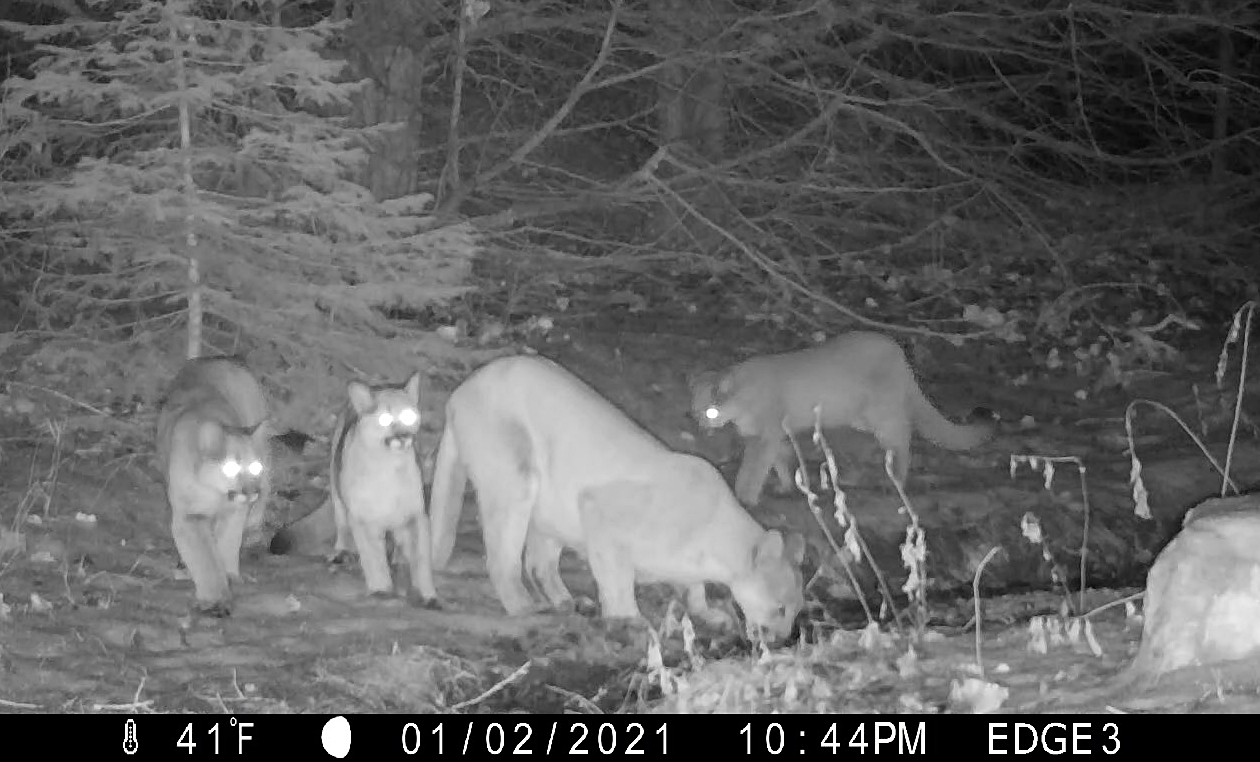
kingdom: Animalia
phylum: Chordata
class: Mammalia
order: Carnivora
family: Felidae
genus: Puma
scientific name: Puma concolor
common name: Puma
